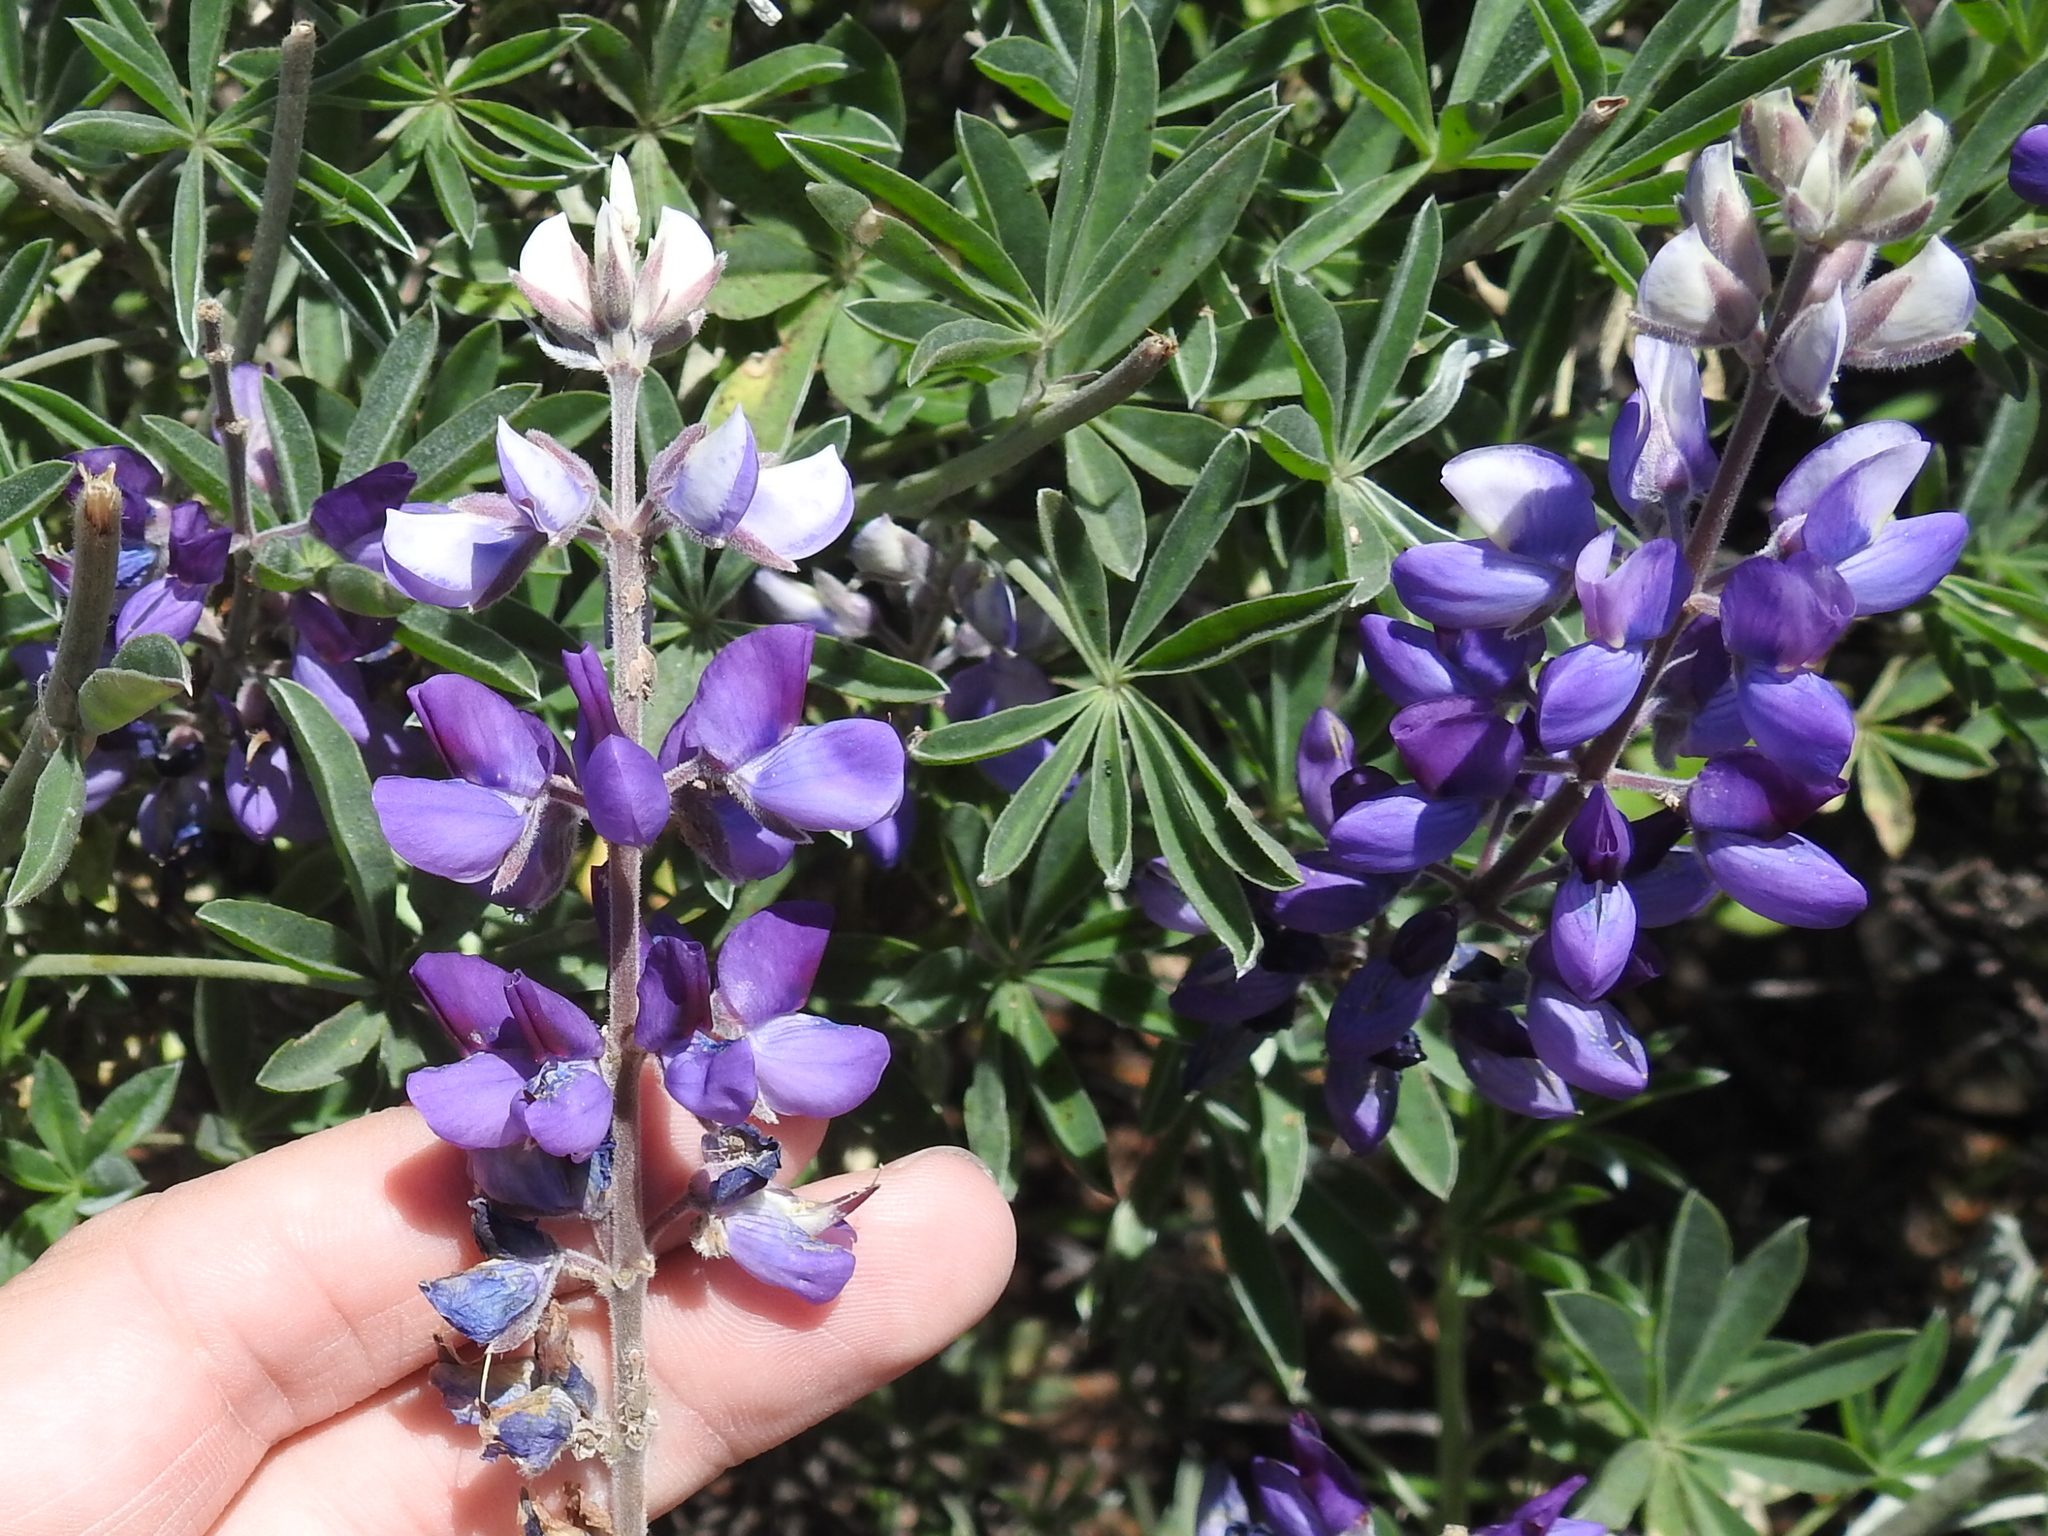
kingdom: Plantae
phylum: Tracheophyta
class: Magnoliopsida
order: Fabales
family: Fabaceae
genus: Lupinus
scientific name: Lupinus albifrons
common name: Foothill lupine
